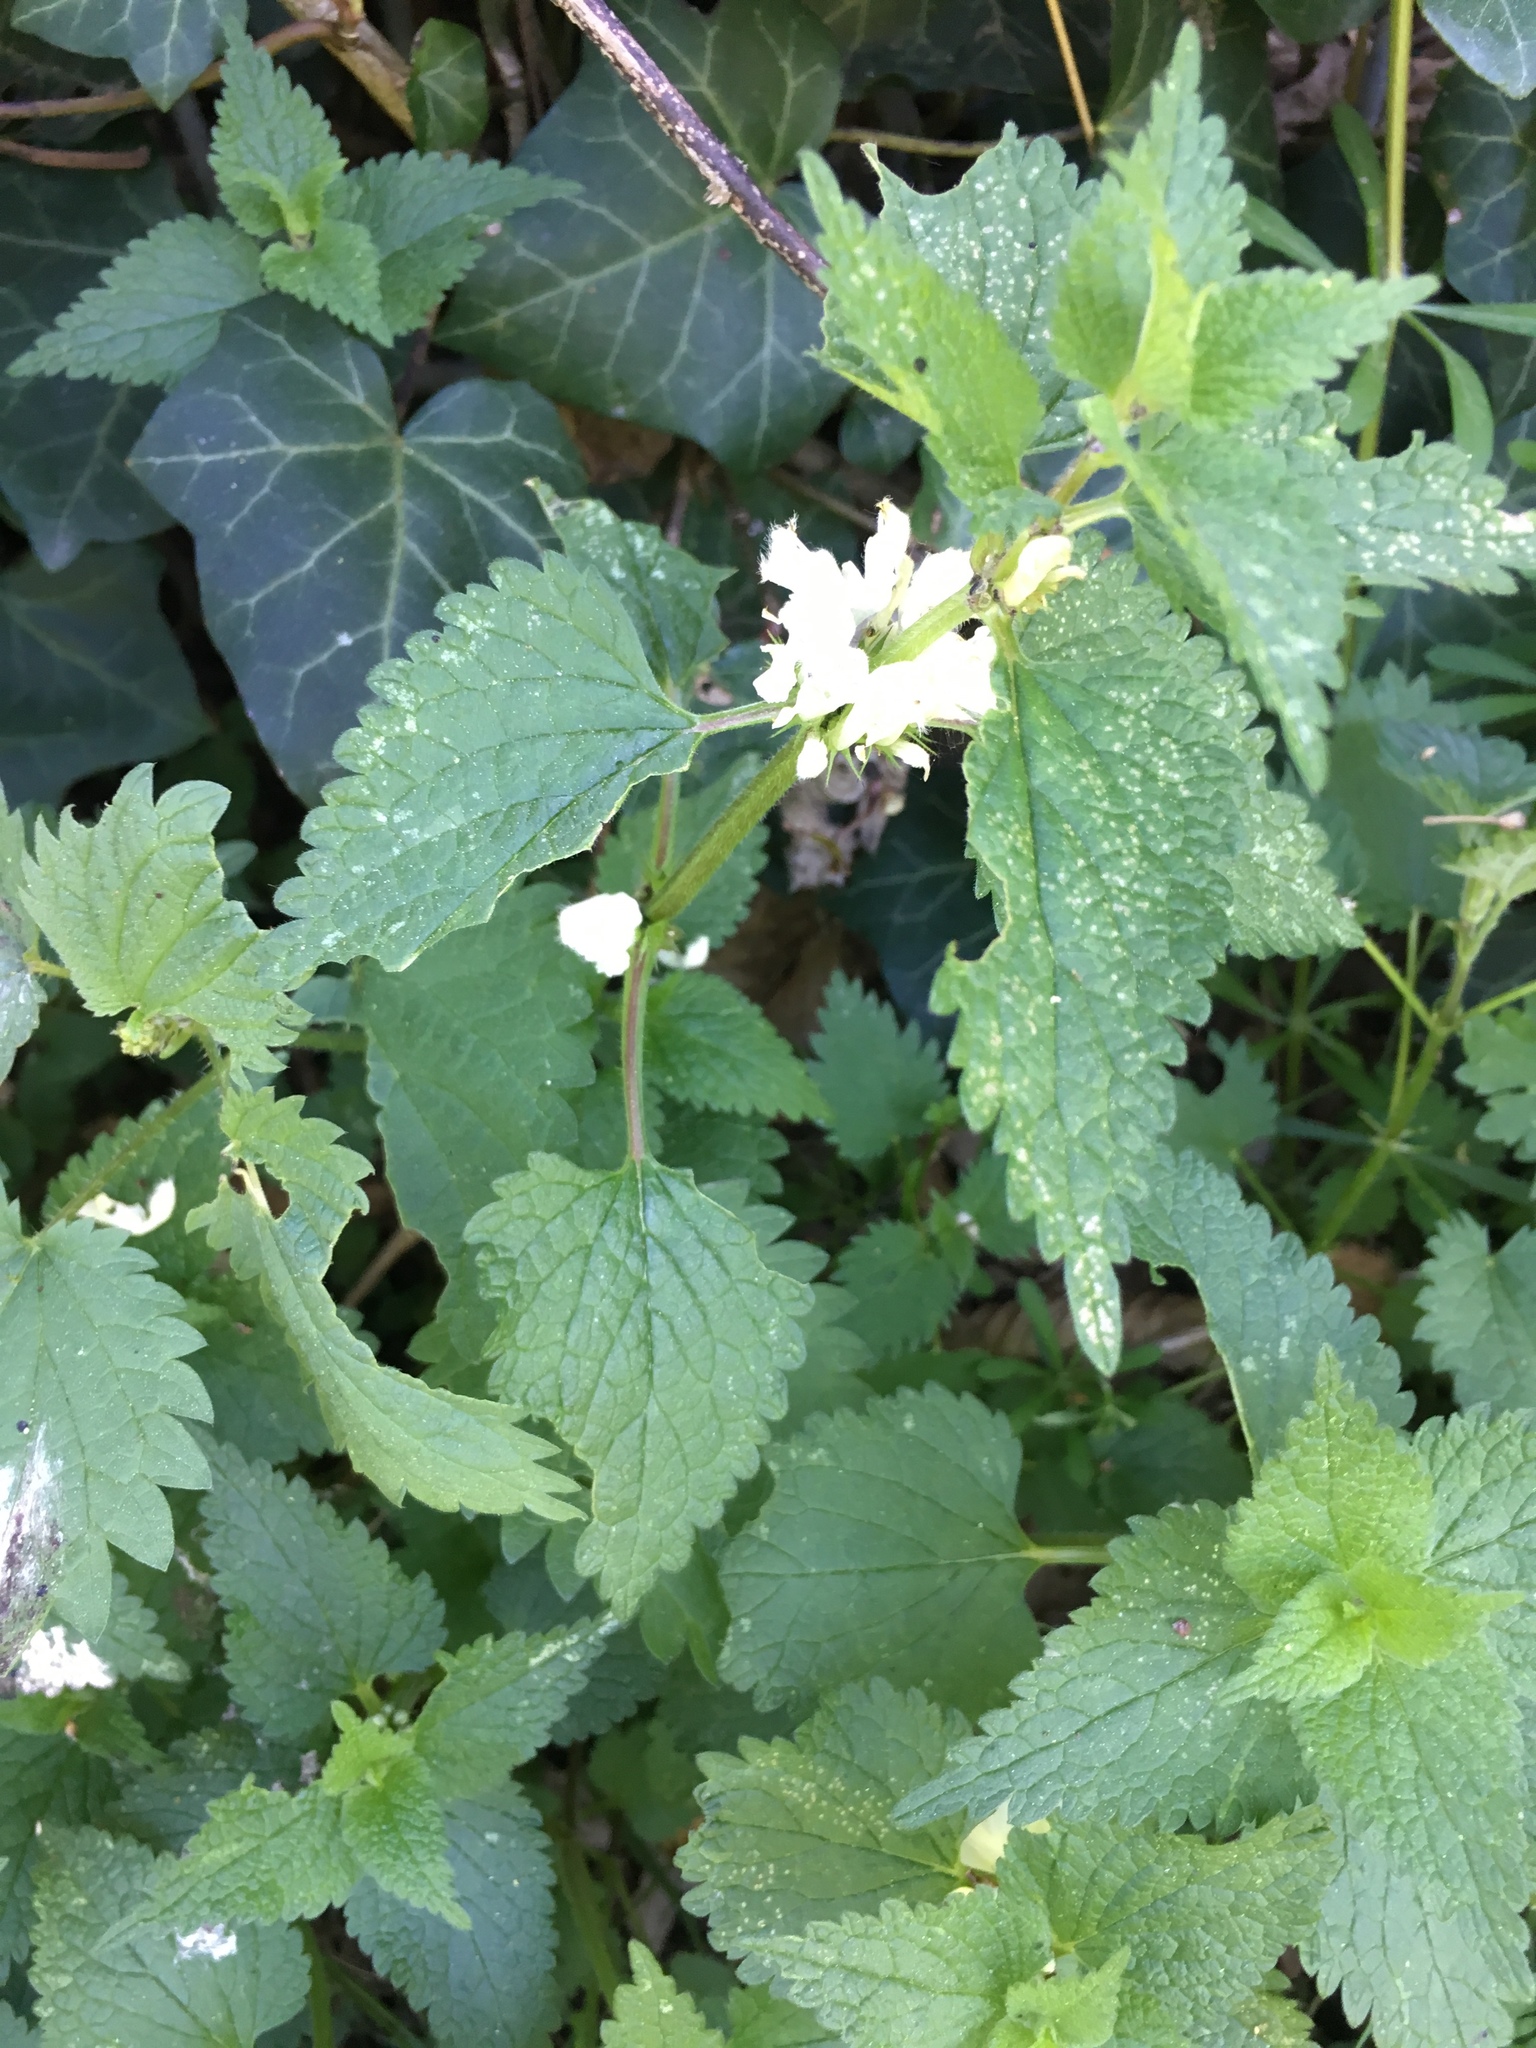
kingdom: Plantae
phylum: Tracheophyta
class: Magnoliopsida
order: Lamiales
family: Lamiaceae
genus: Lamium
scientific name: Lamium album
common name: White dead-nettle
